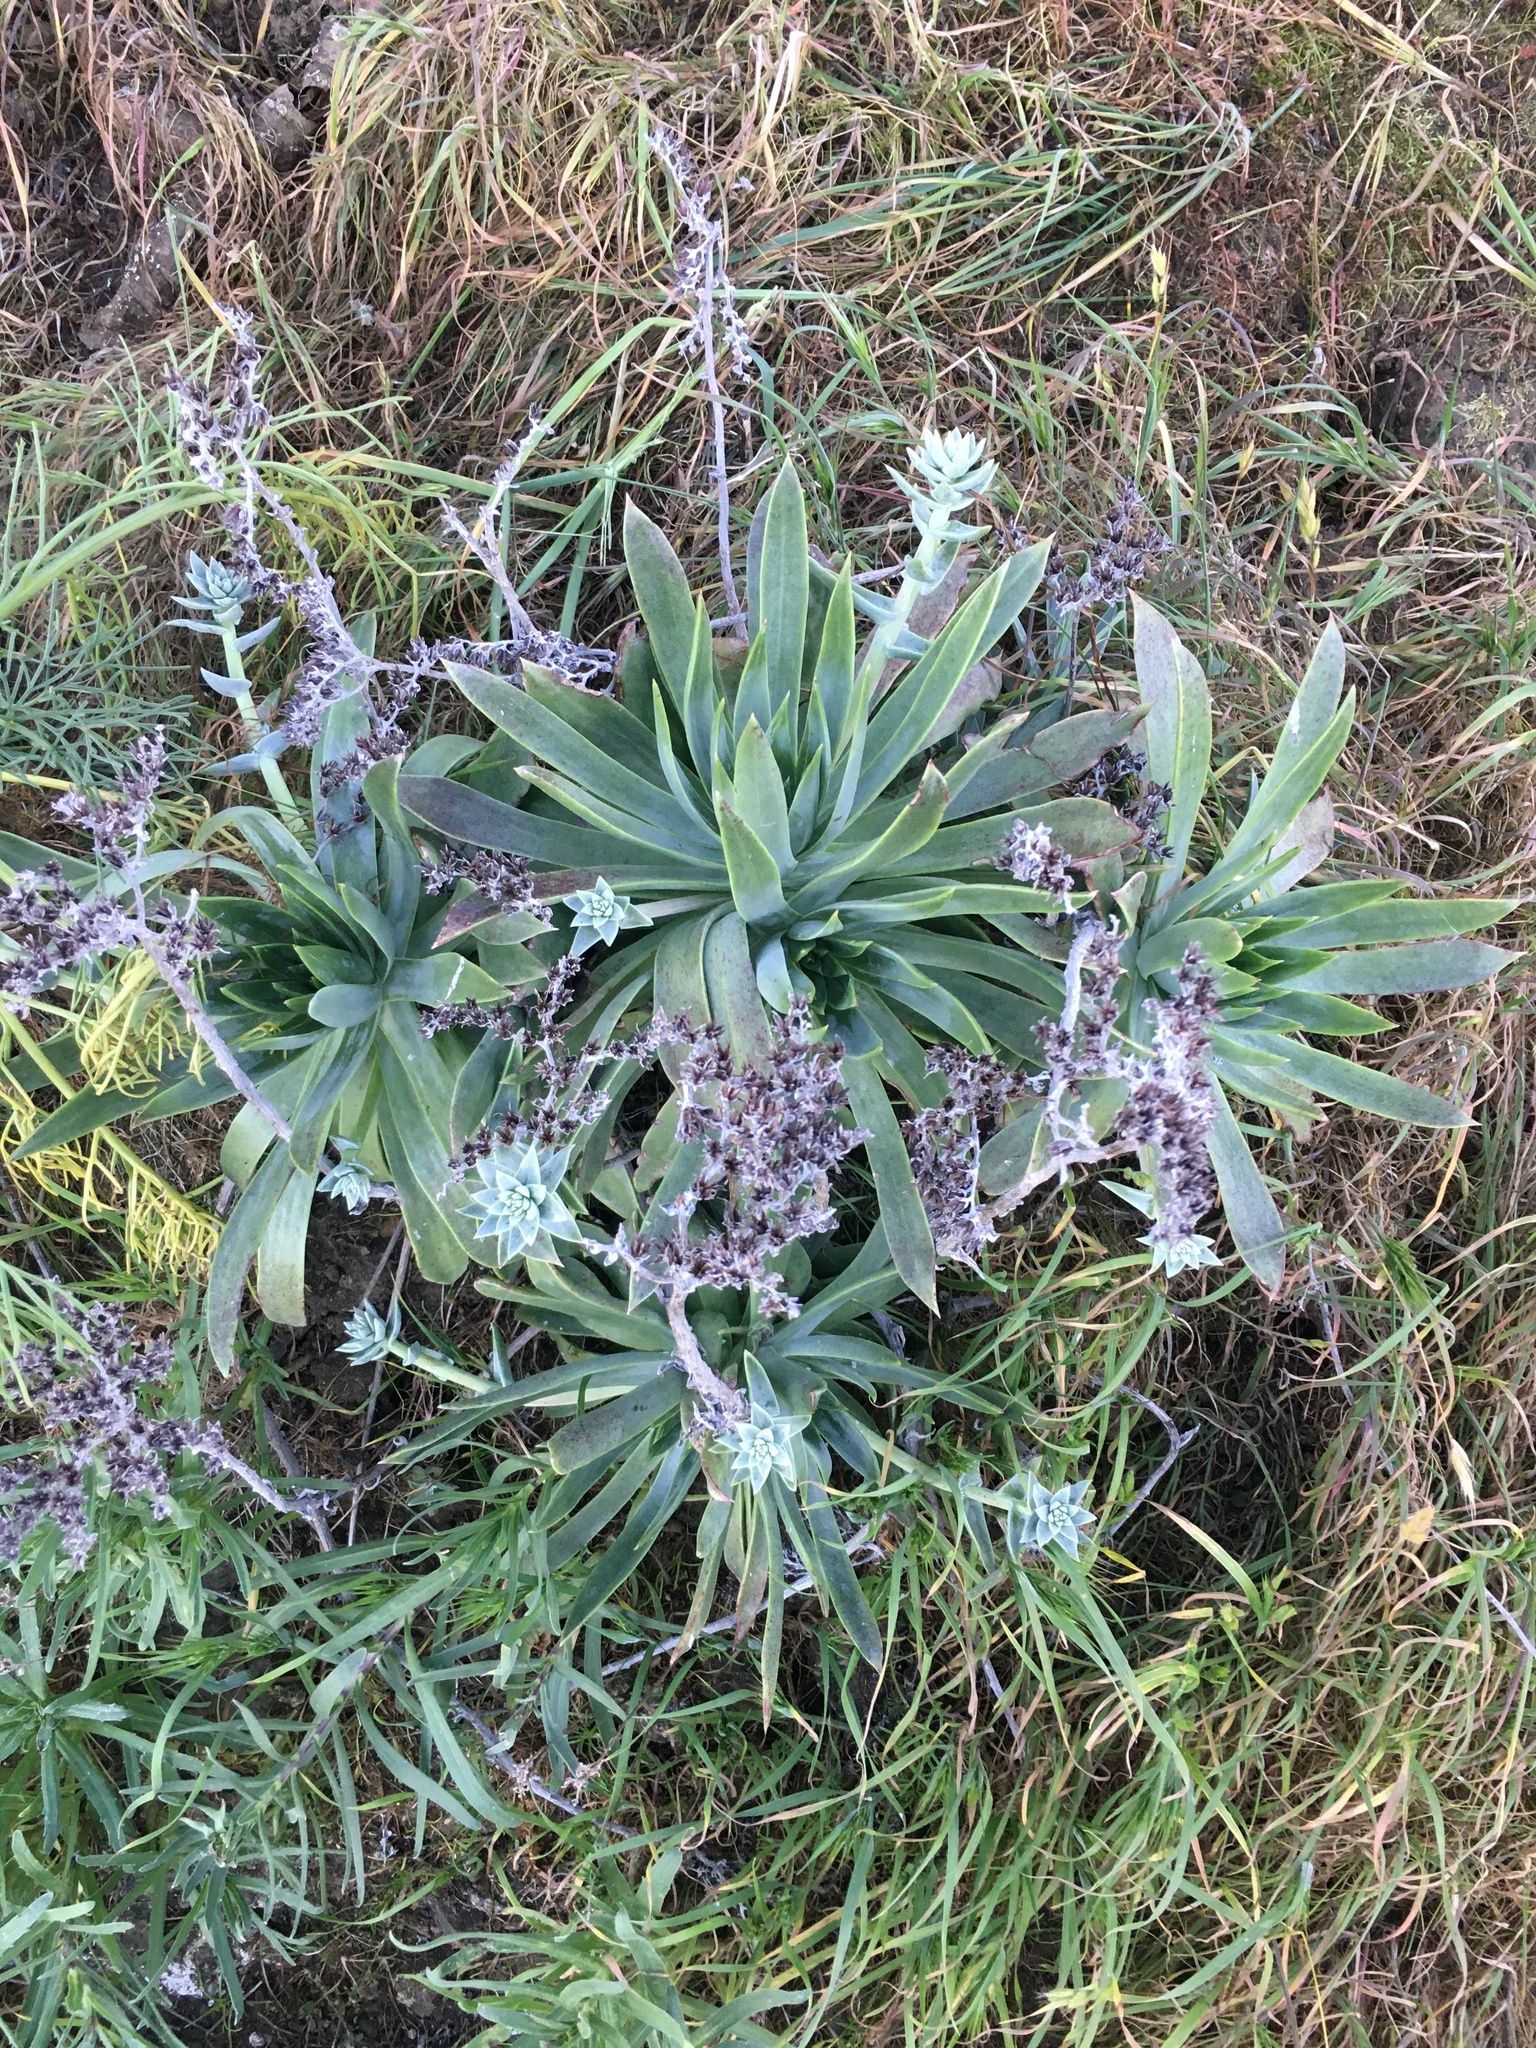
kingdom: Plantae
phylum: Tracheophyta
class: Magnoliopsida
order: Saxifragales
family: Crassulaceae
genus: Dudleya
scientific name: Dudleya traskiae
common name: Santa barbara island dudleya
